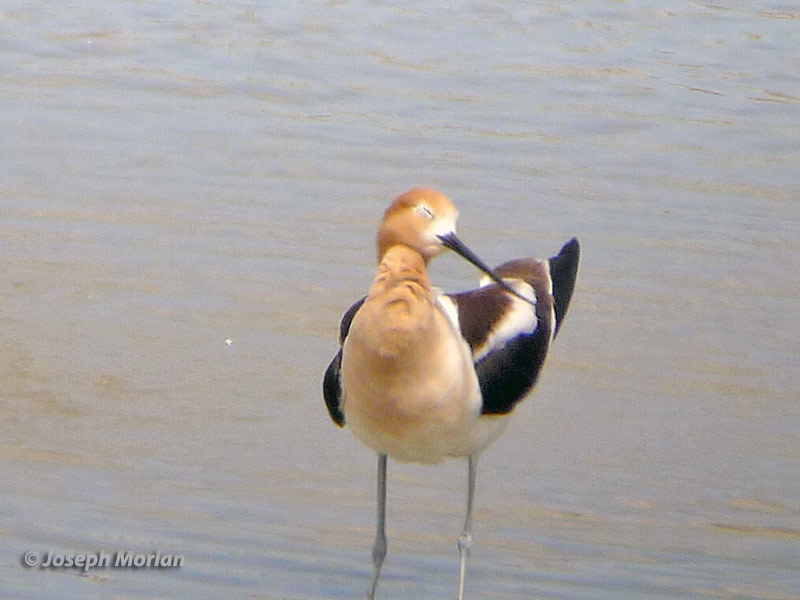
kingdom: Animalia
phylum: Chordata
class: Aves
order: Charadriiformes
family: Recurvirostridae
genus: Recurvirostra
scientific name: Recurvirostra americana
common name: American avocet
